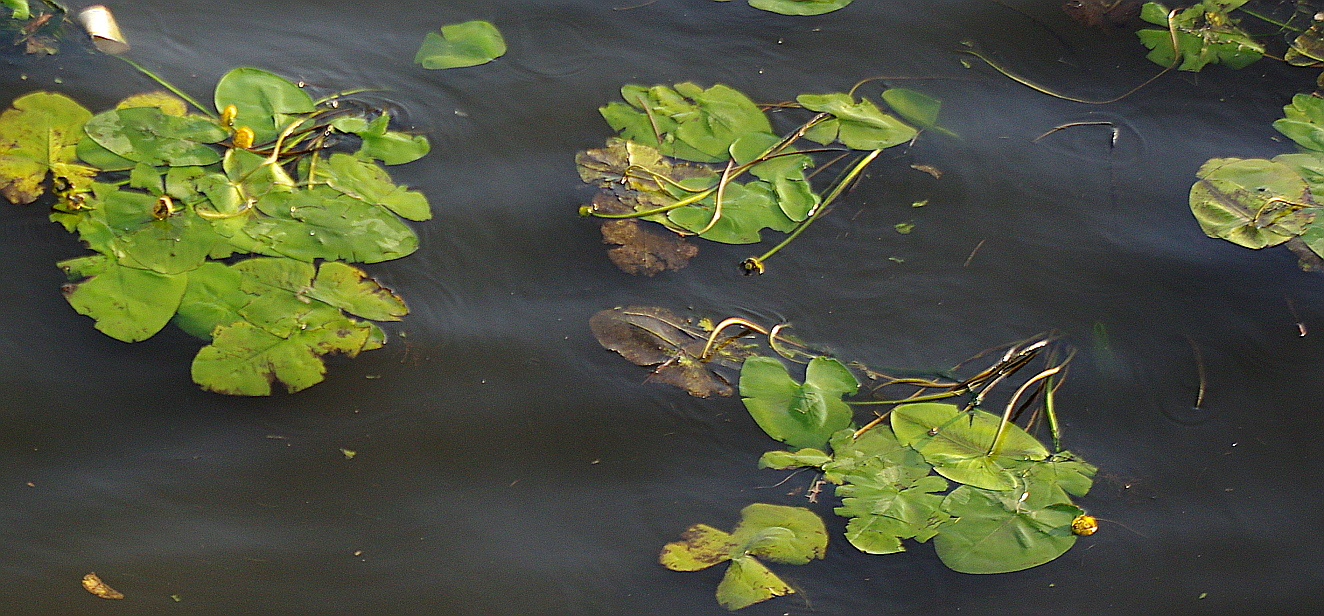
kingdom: Plantae
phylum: Tracheophyta
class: Magnoliopsida
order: Nymphaeales
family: Nymphaeaceae
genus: Nuphar
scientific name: Nuphar lutea
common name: Yellow water-lily
